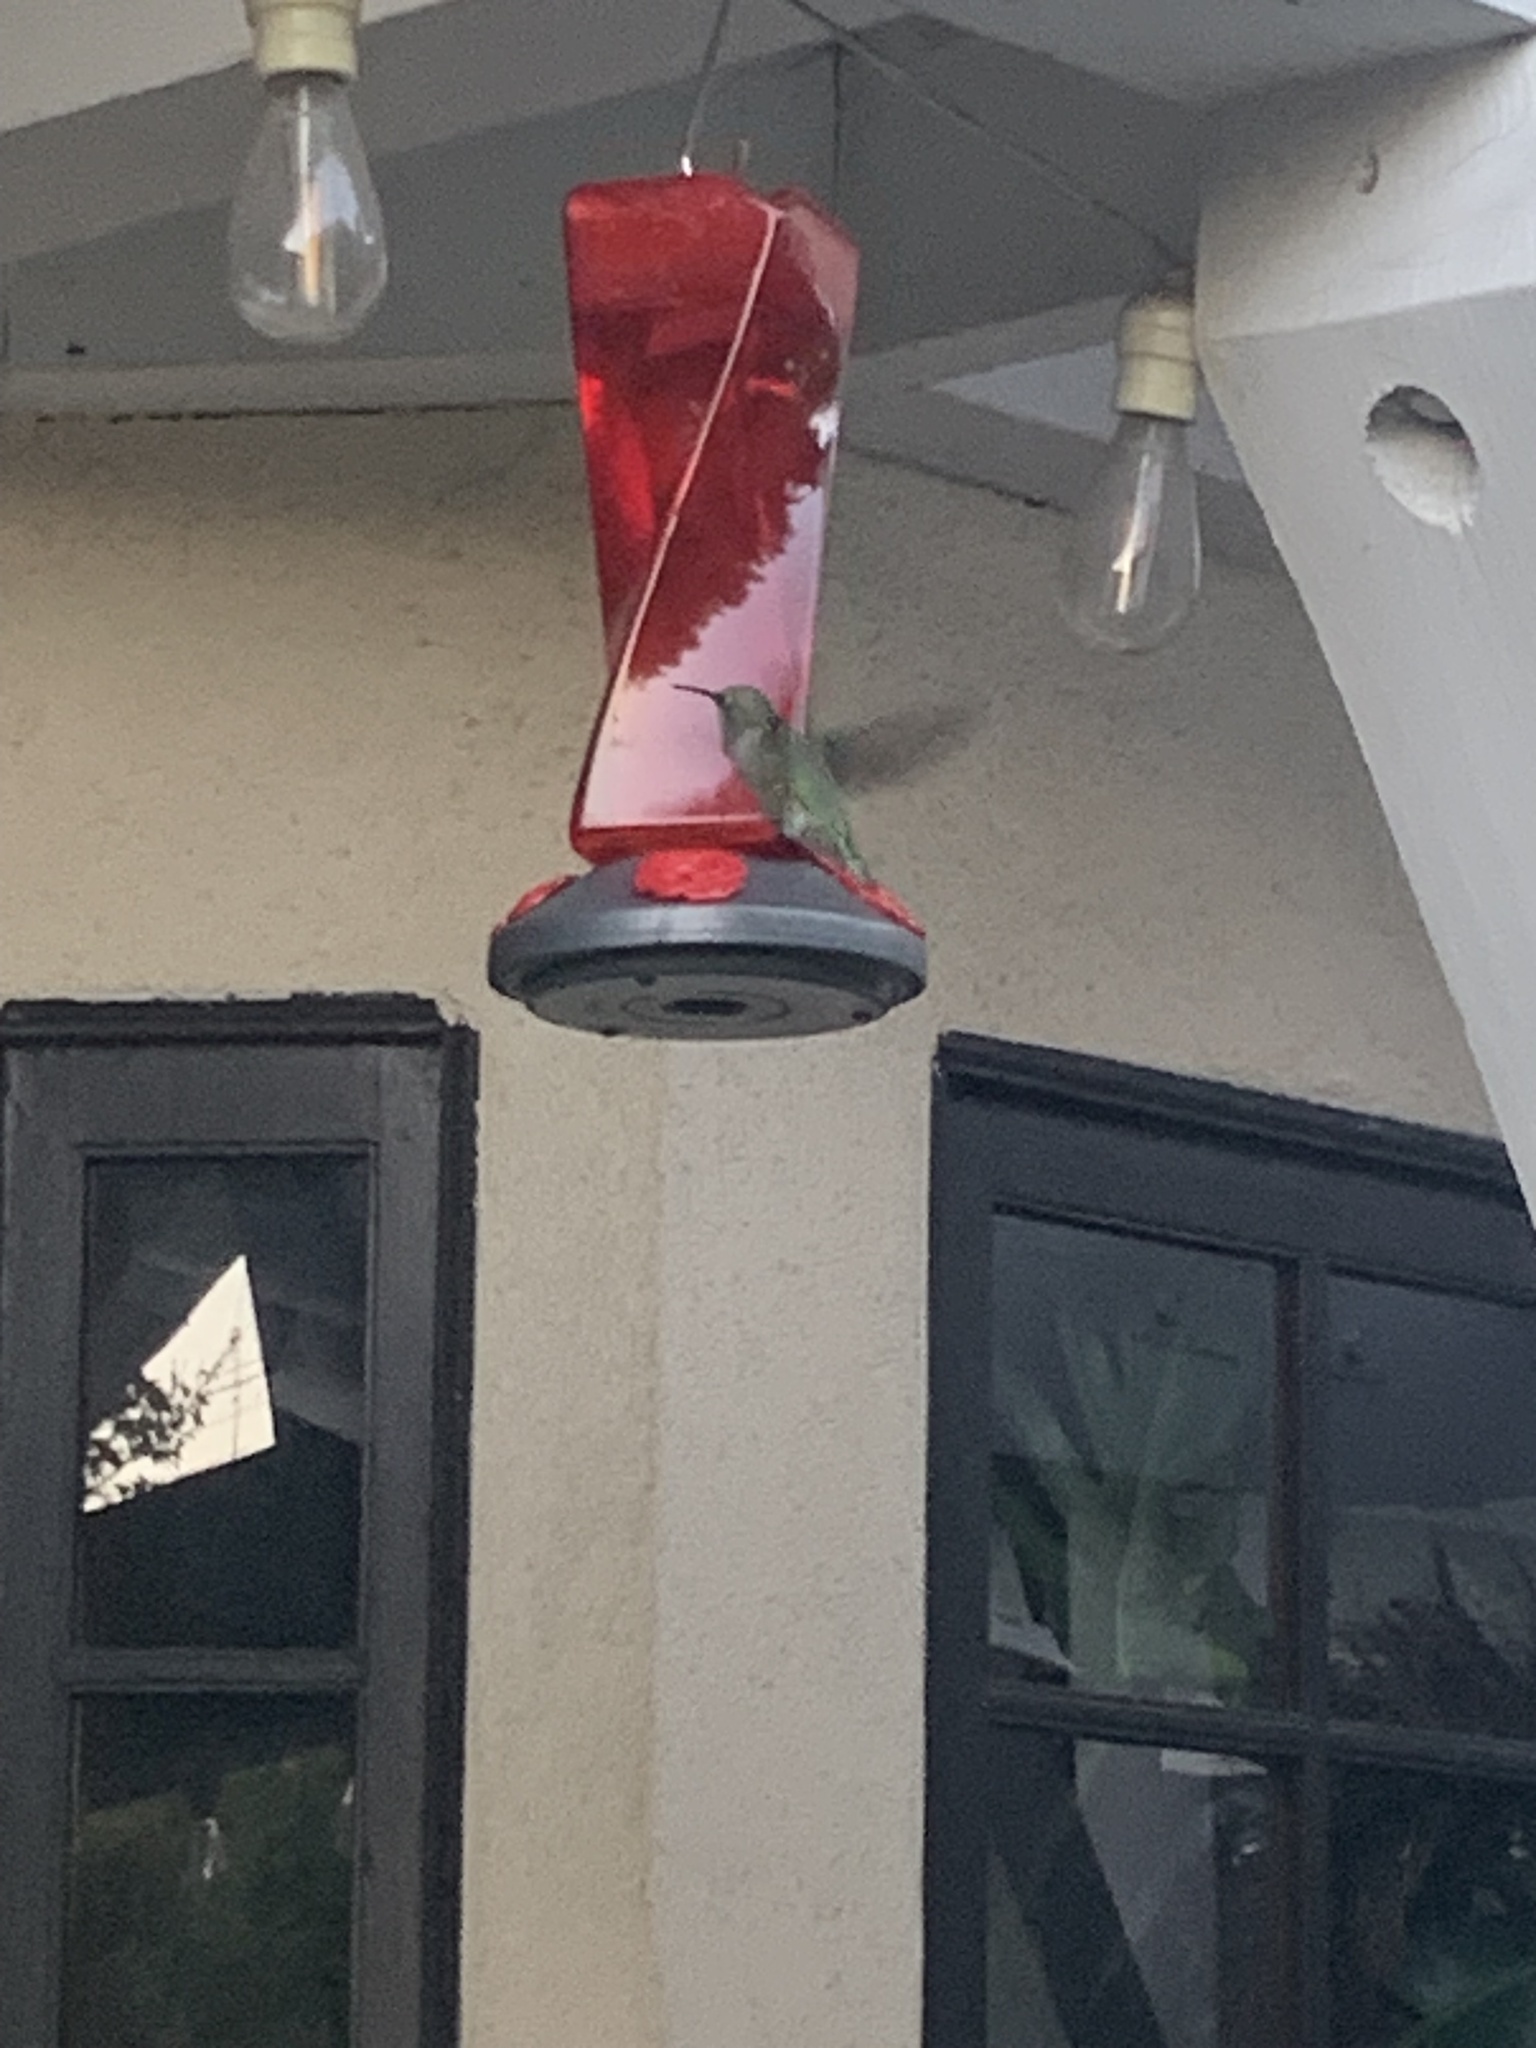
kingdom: Animalia
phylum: Chordata
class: Aves
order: Apodiformes
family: Trochilidae
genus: Calypte
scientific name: Calypte anna
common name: Anna's hummingbird
